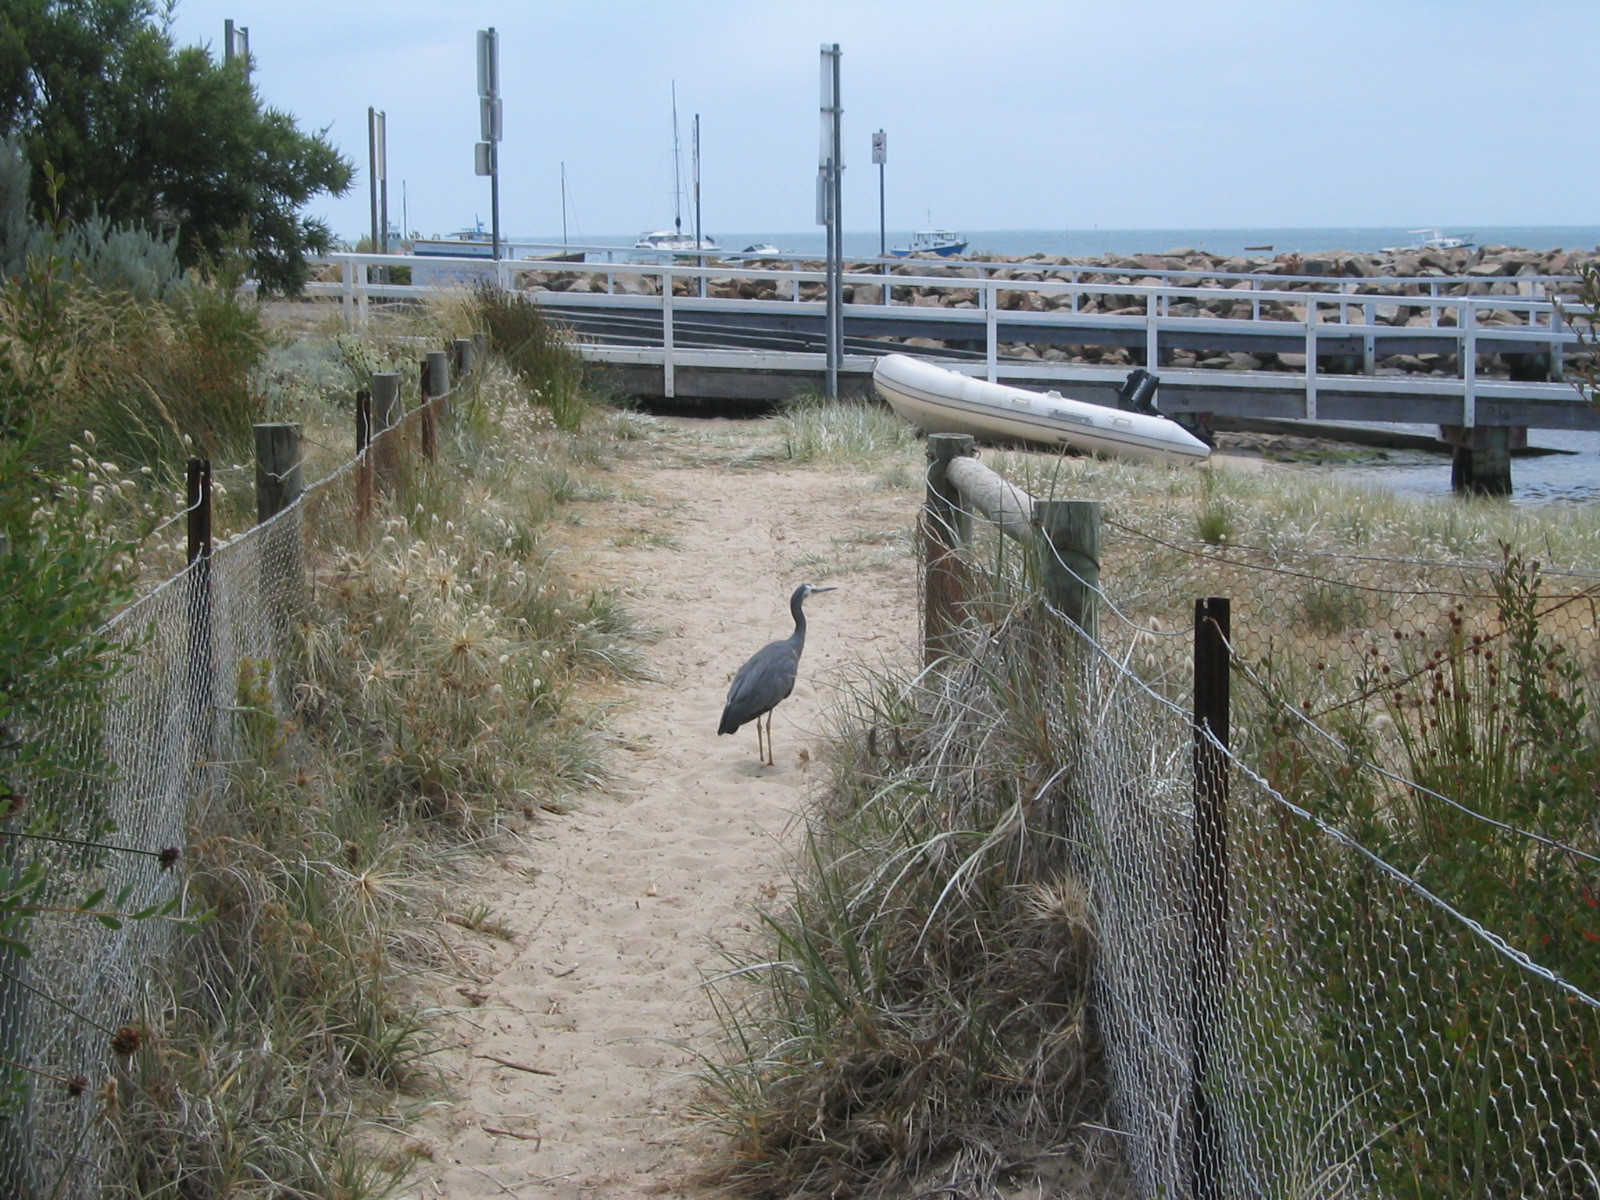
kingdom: Animalia
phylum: Chordata
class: Aves
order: Pelecaniformes
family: Ardeidae
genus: Egretta
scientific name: Egretta novaehollandiae
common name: White-faced heron
